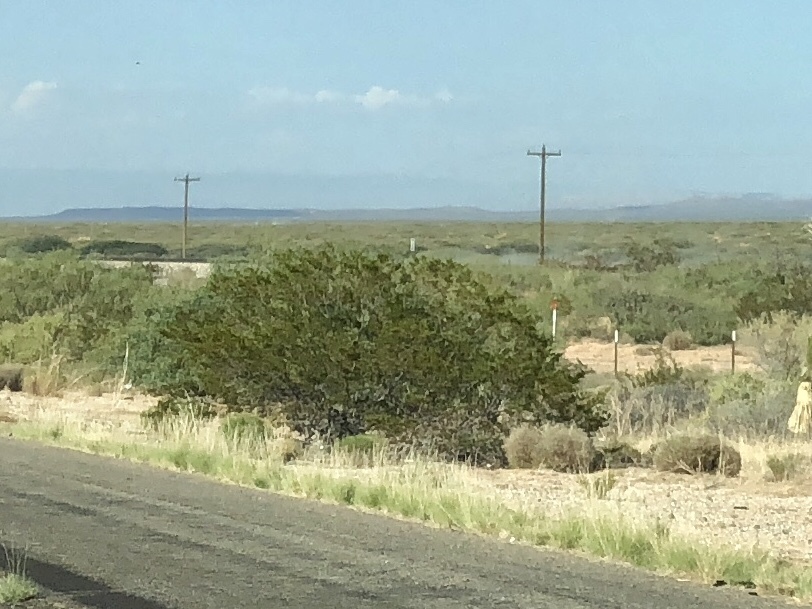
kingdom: Plantae
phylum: Tracheophyta
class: Magnoliopsida
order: Zygophyllales
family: Zygophyllaceae
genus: Larrea
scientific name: Larrea tridentata
